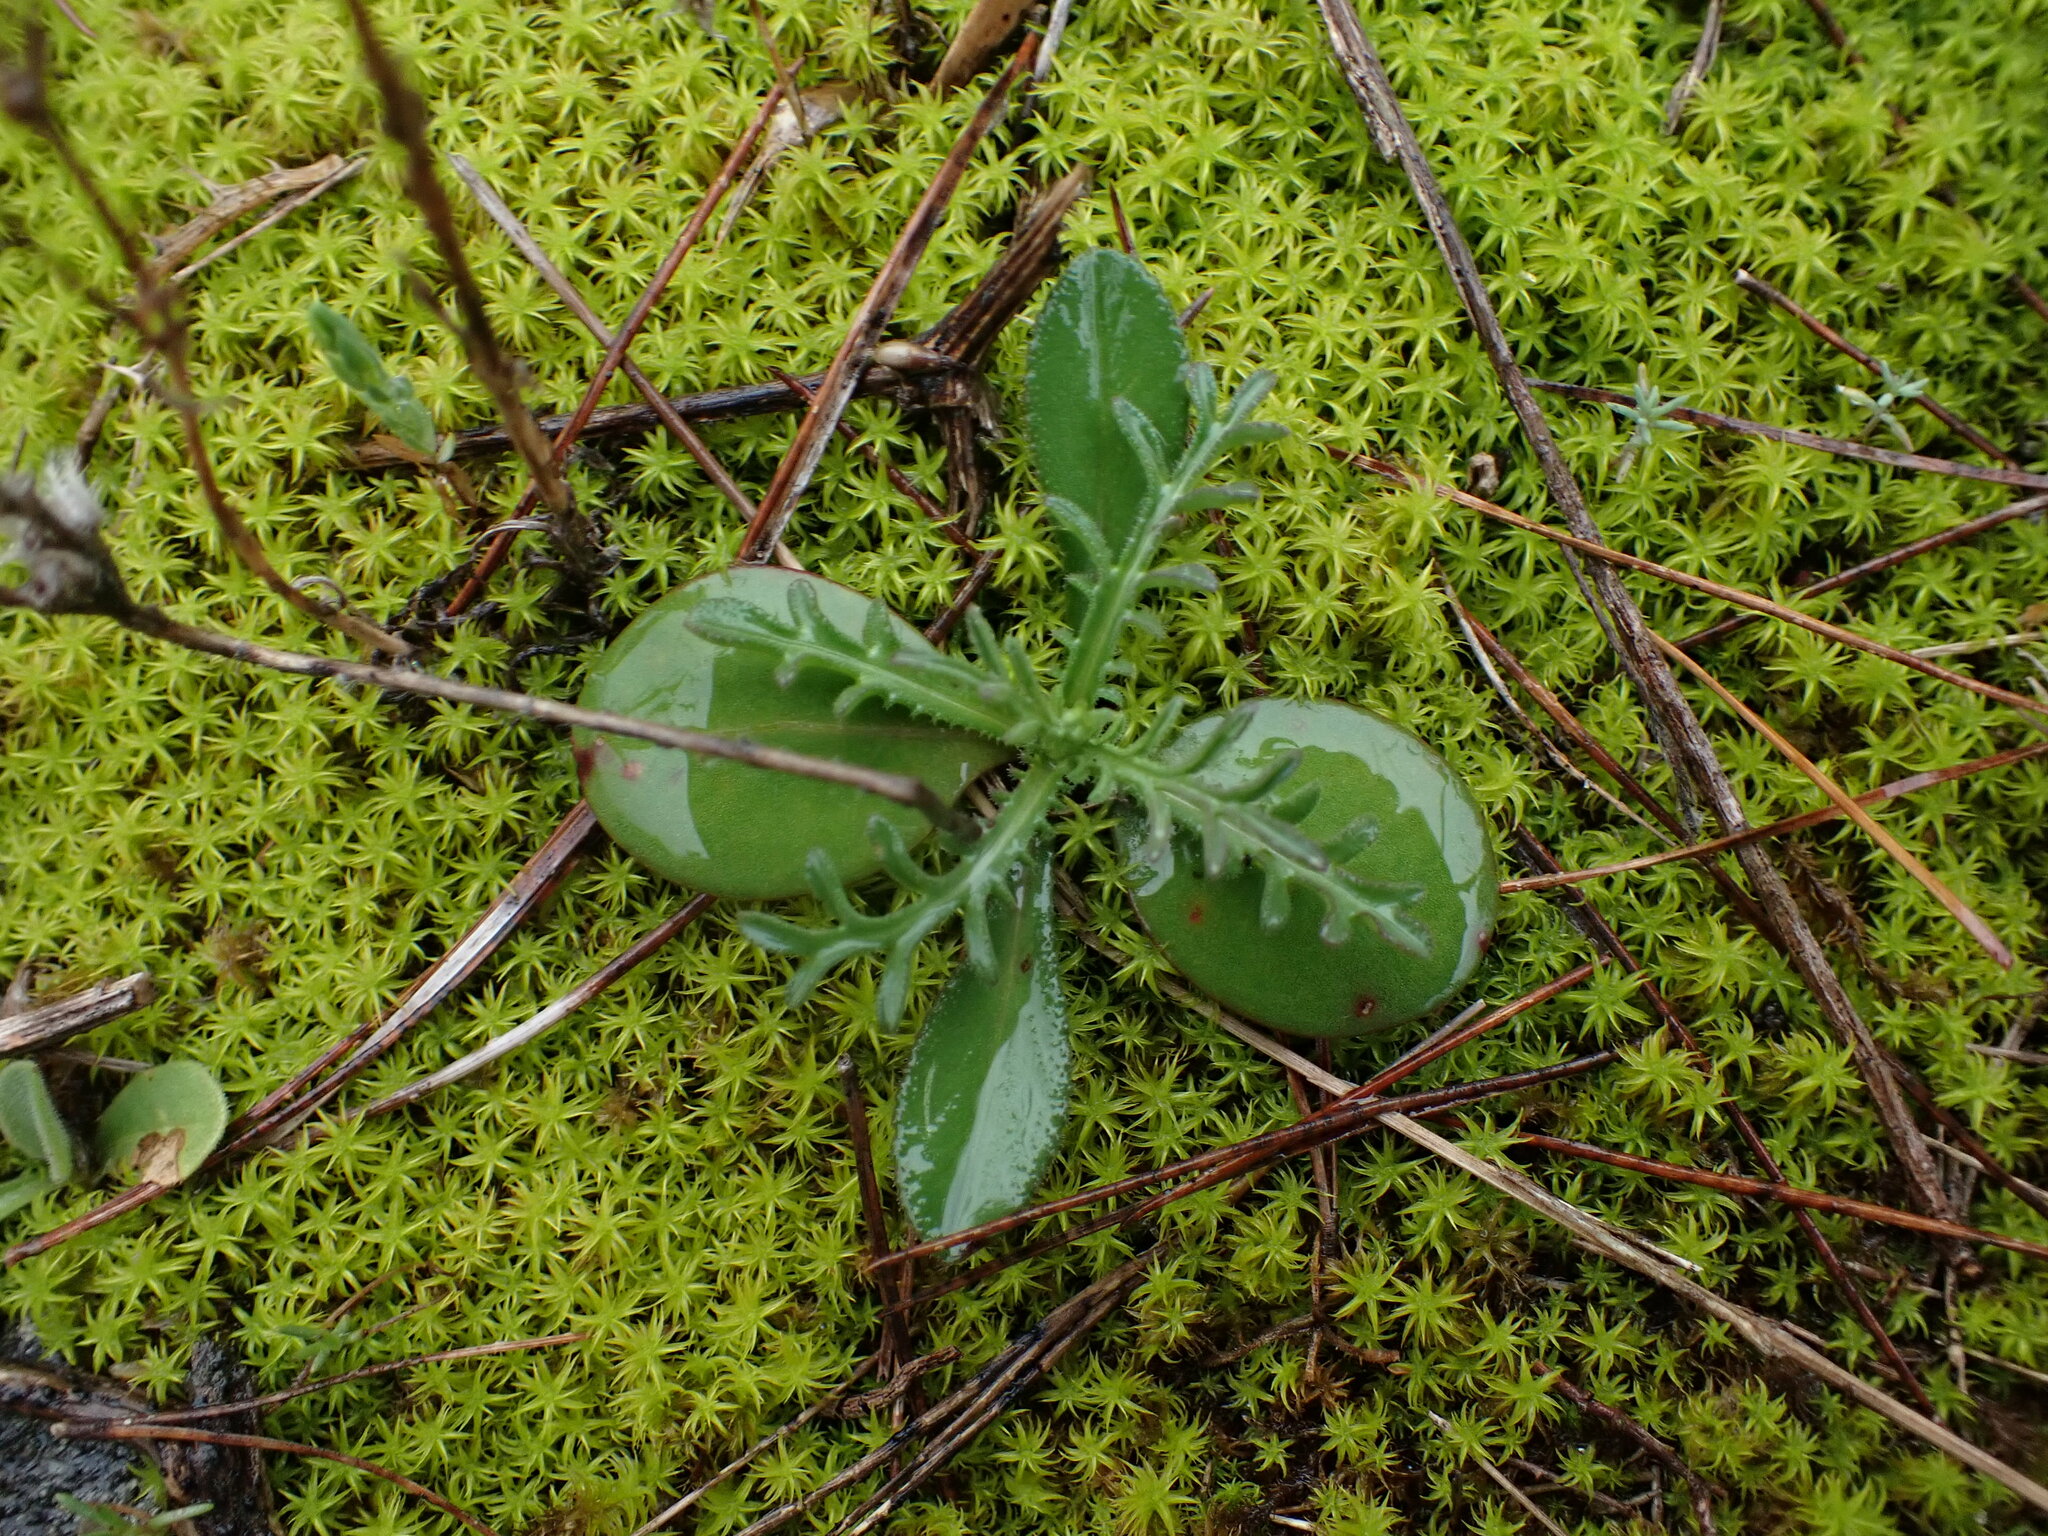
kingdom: Plantae
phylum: Tracheophyta
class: Magnoliopsida
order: Asterales
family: Asteraceae
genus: Crupina
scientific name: Crupina vulgaris
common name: Common crupina
